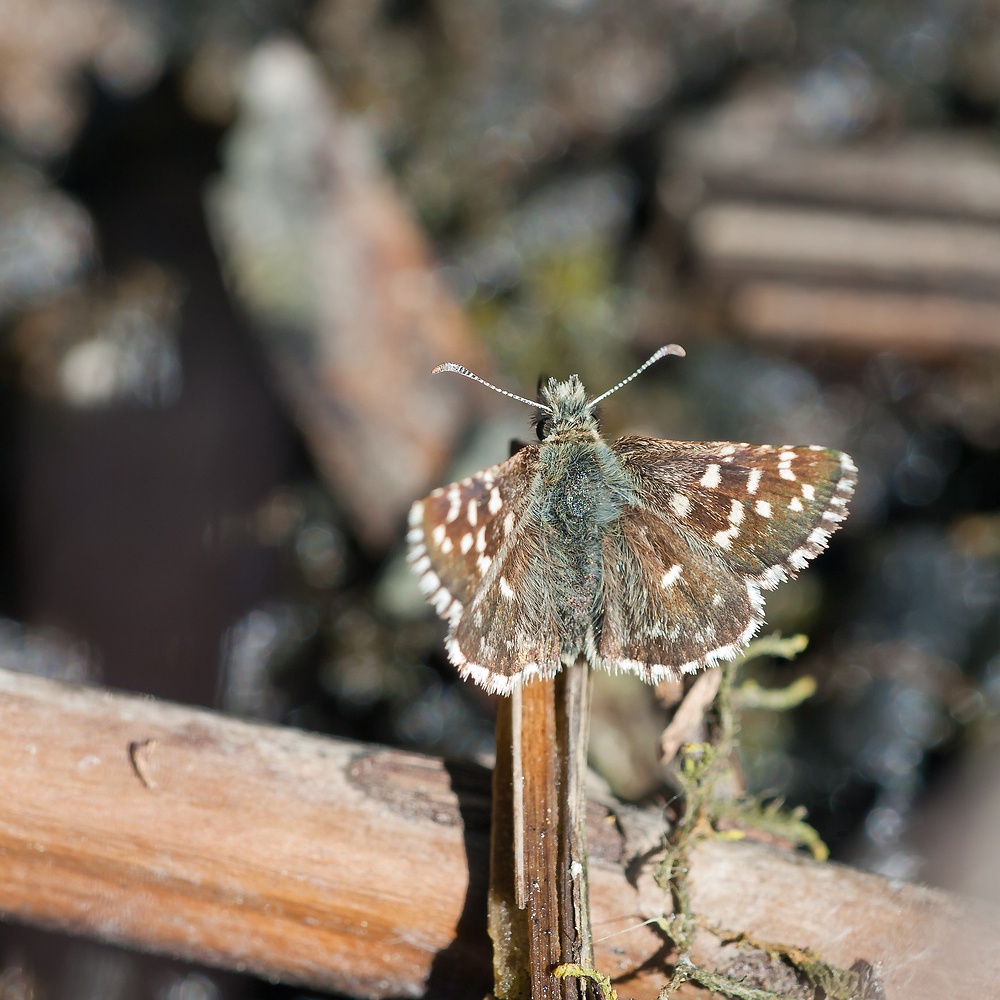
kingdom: Animalia
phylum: Arthropoda
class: Insecta
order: Lepidoptera
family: Hesperiidae
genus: Pyrgus
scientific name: Pyrgus malvoides
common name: Southern grizzled skipper
